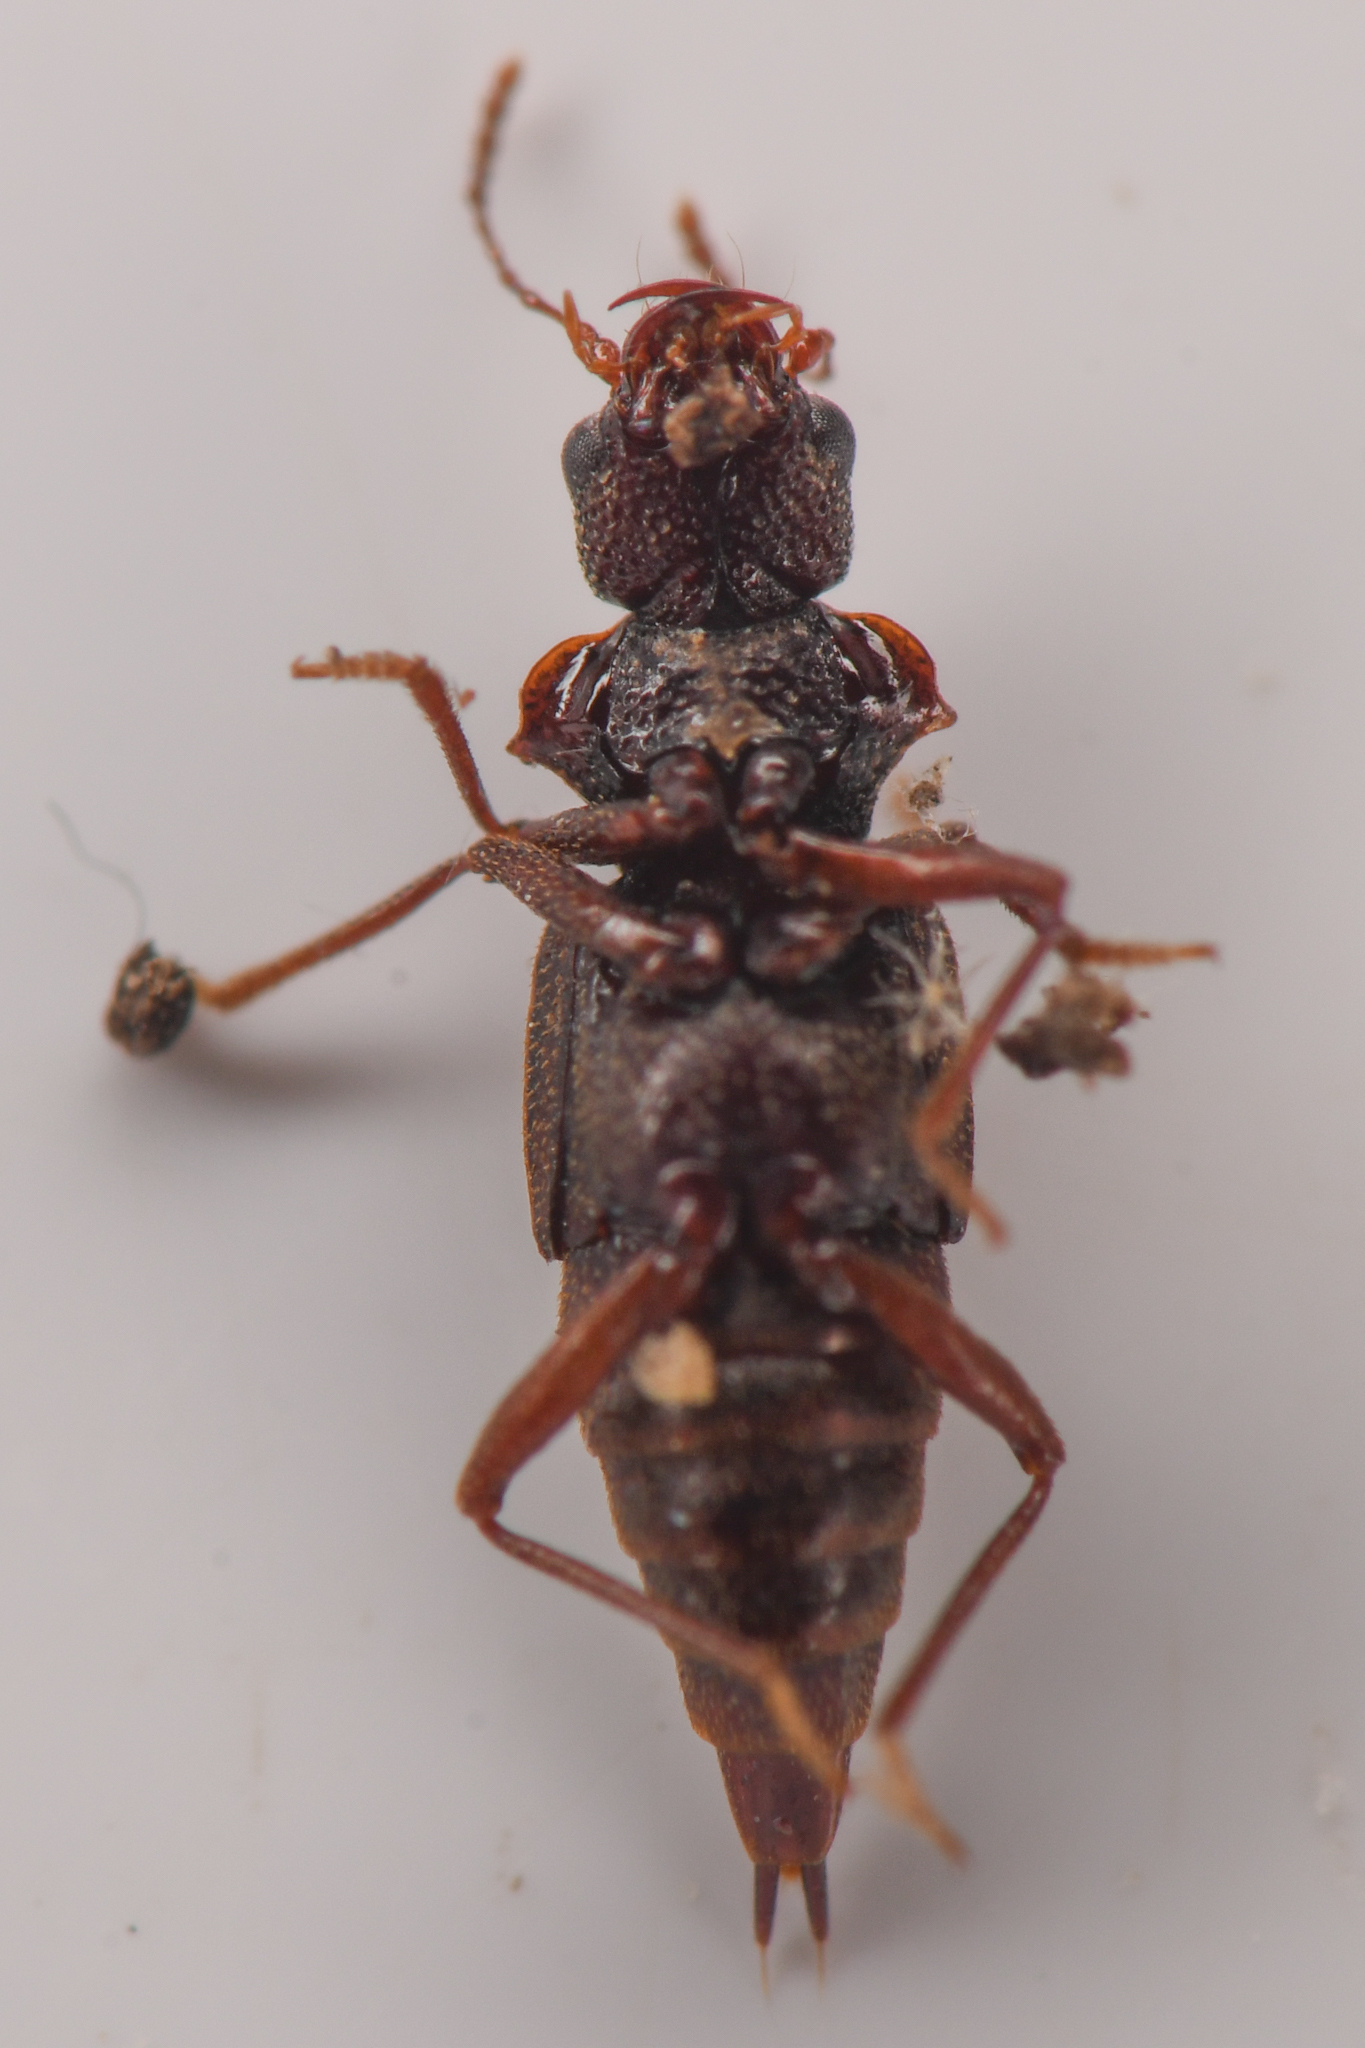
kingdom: Animalia
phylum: Arthropoda
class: Insecta
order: Coleoptera
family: Staphylinidae
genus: Zalobius
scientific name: Zalobius spinicollis
